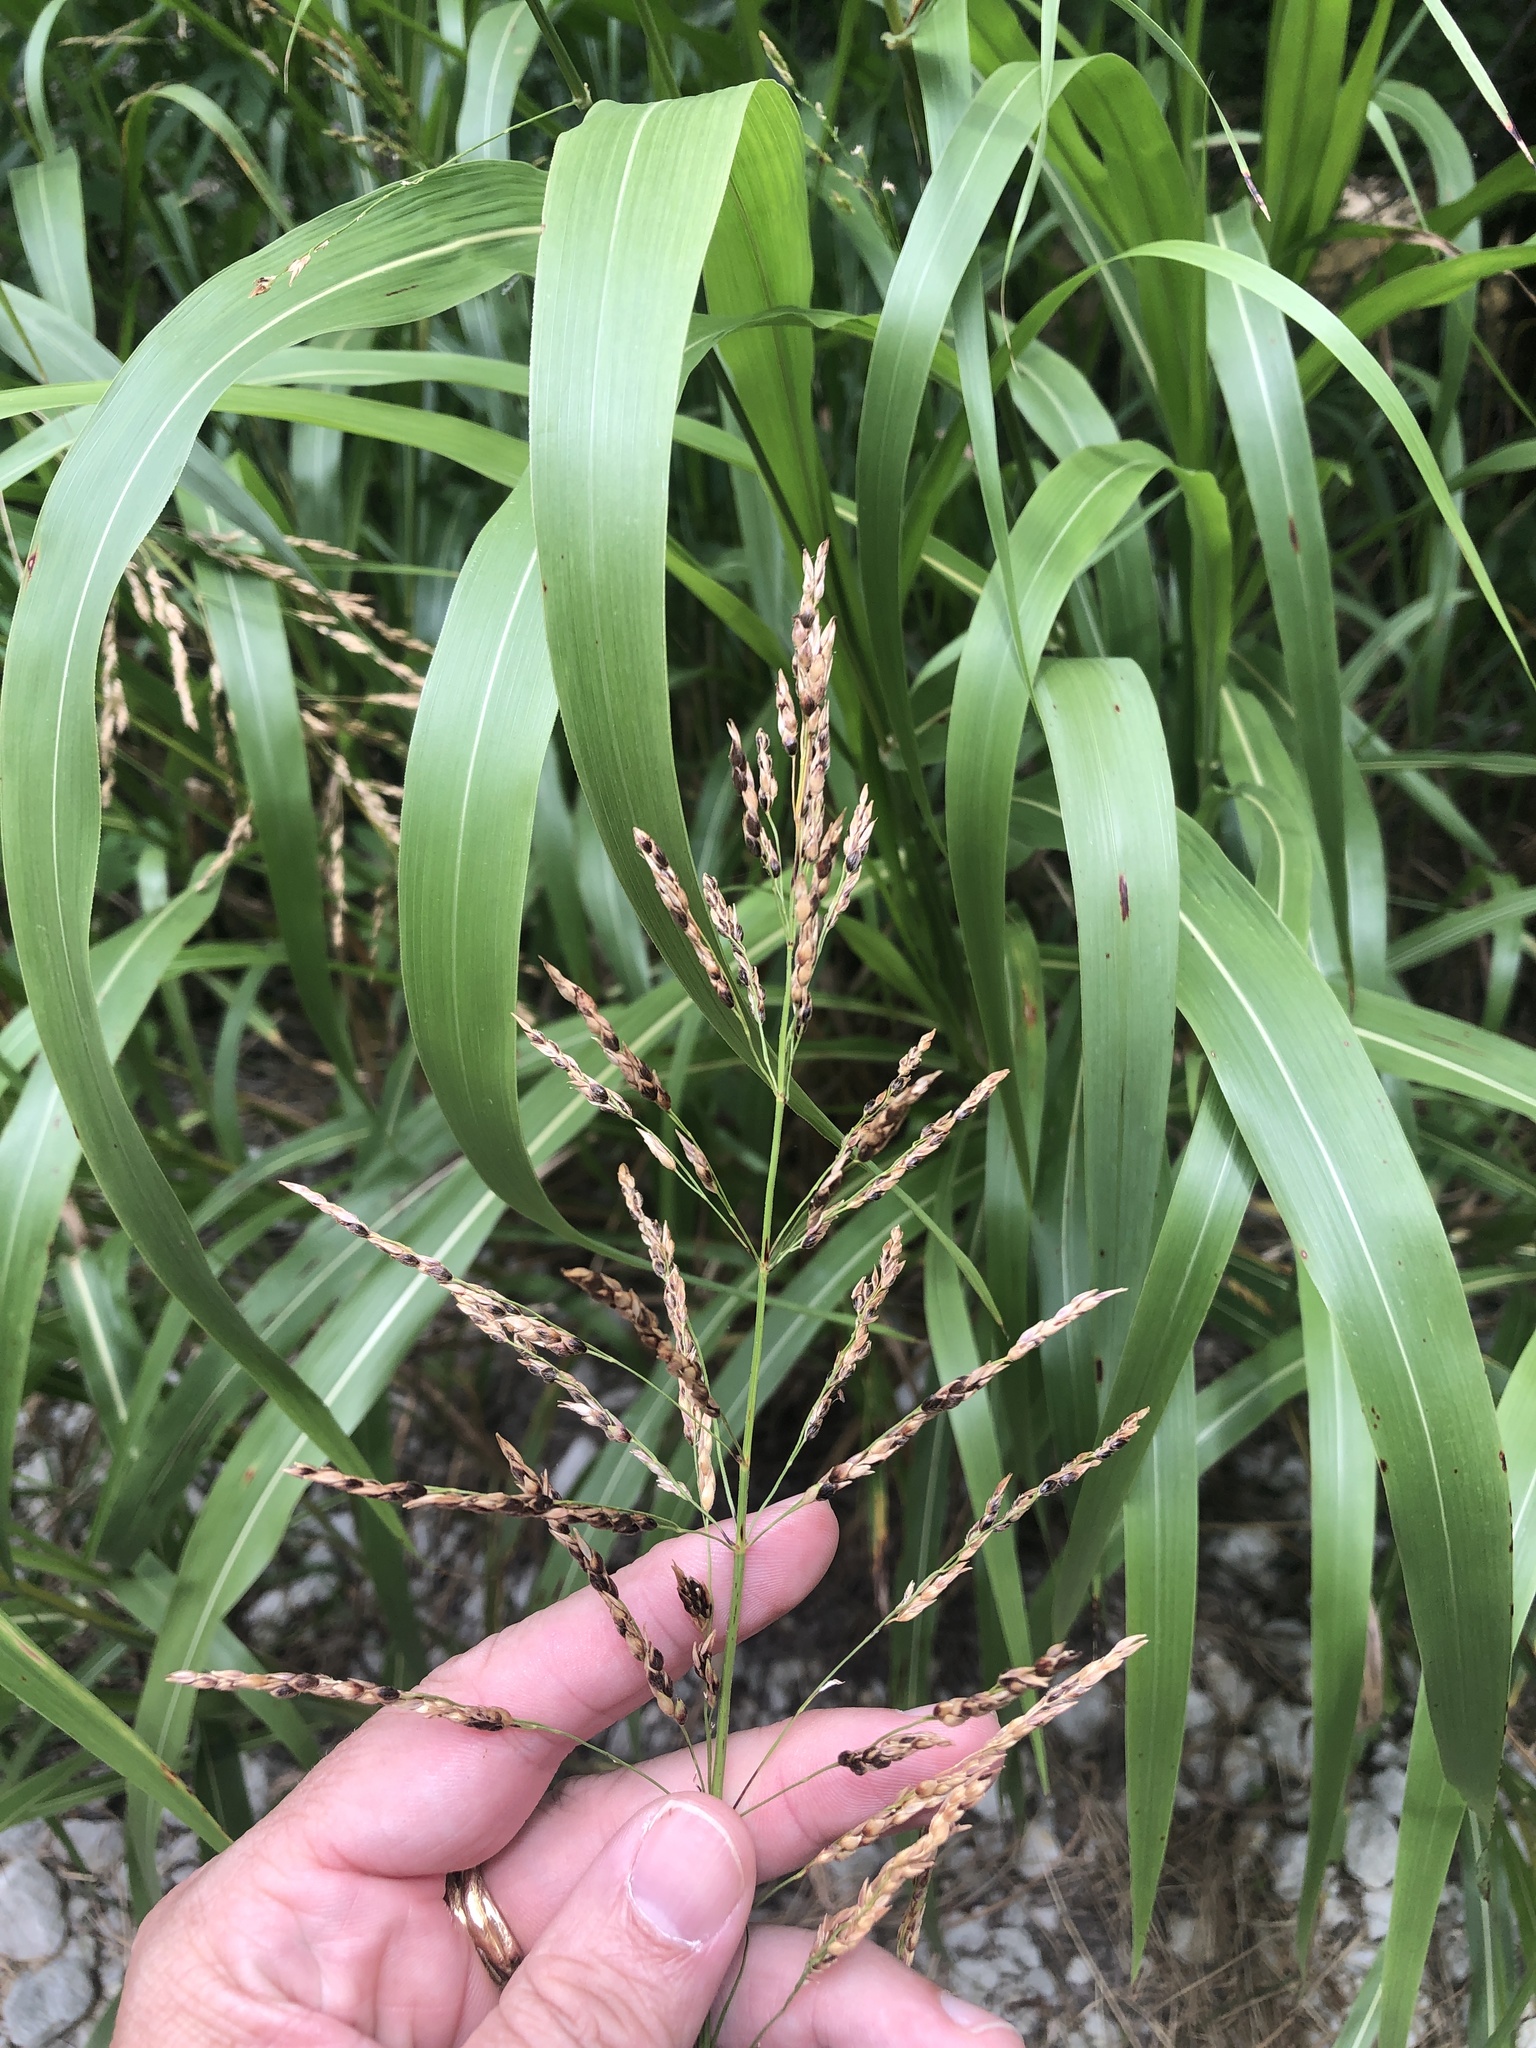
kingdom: Plantae
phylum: Tracheophyta
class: Liliopsida
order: Poales
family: Poaceae
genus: Sorghum
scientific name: Sorghum halepense
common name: Johnson-grass
